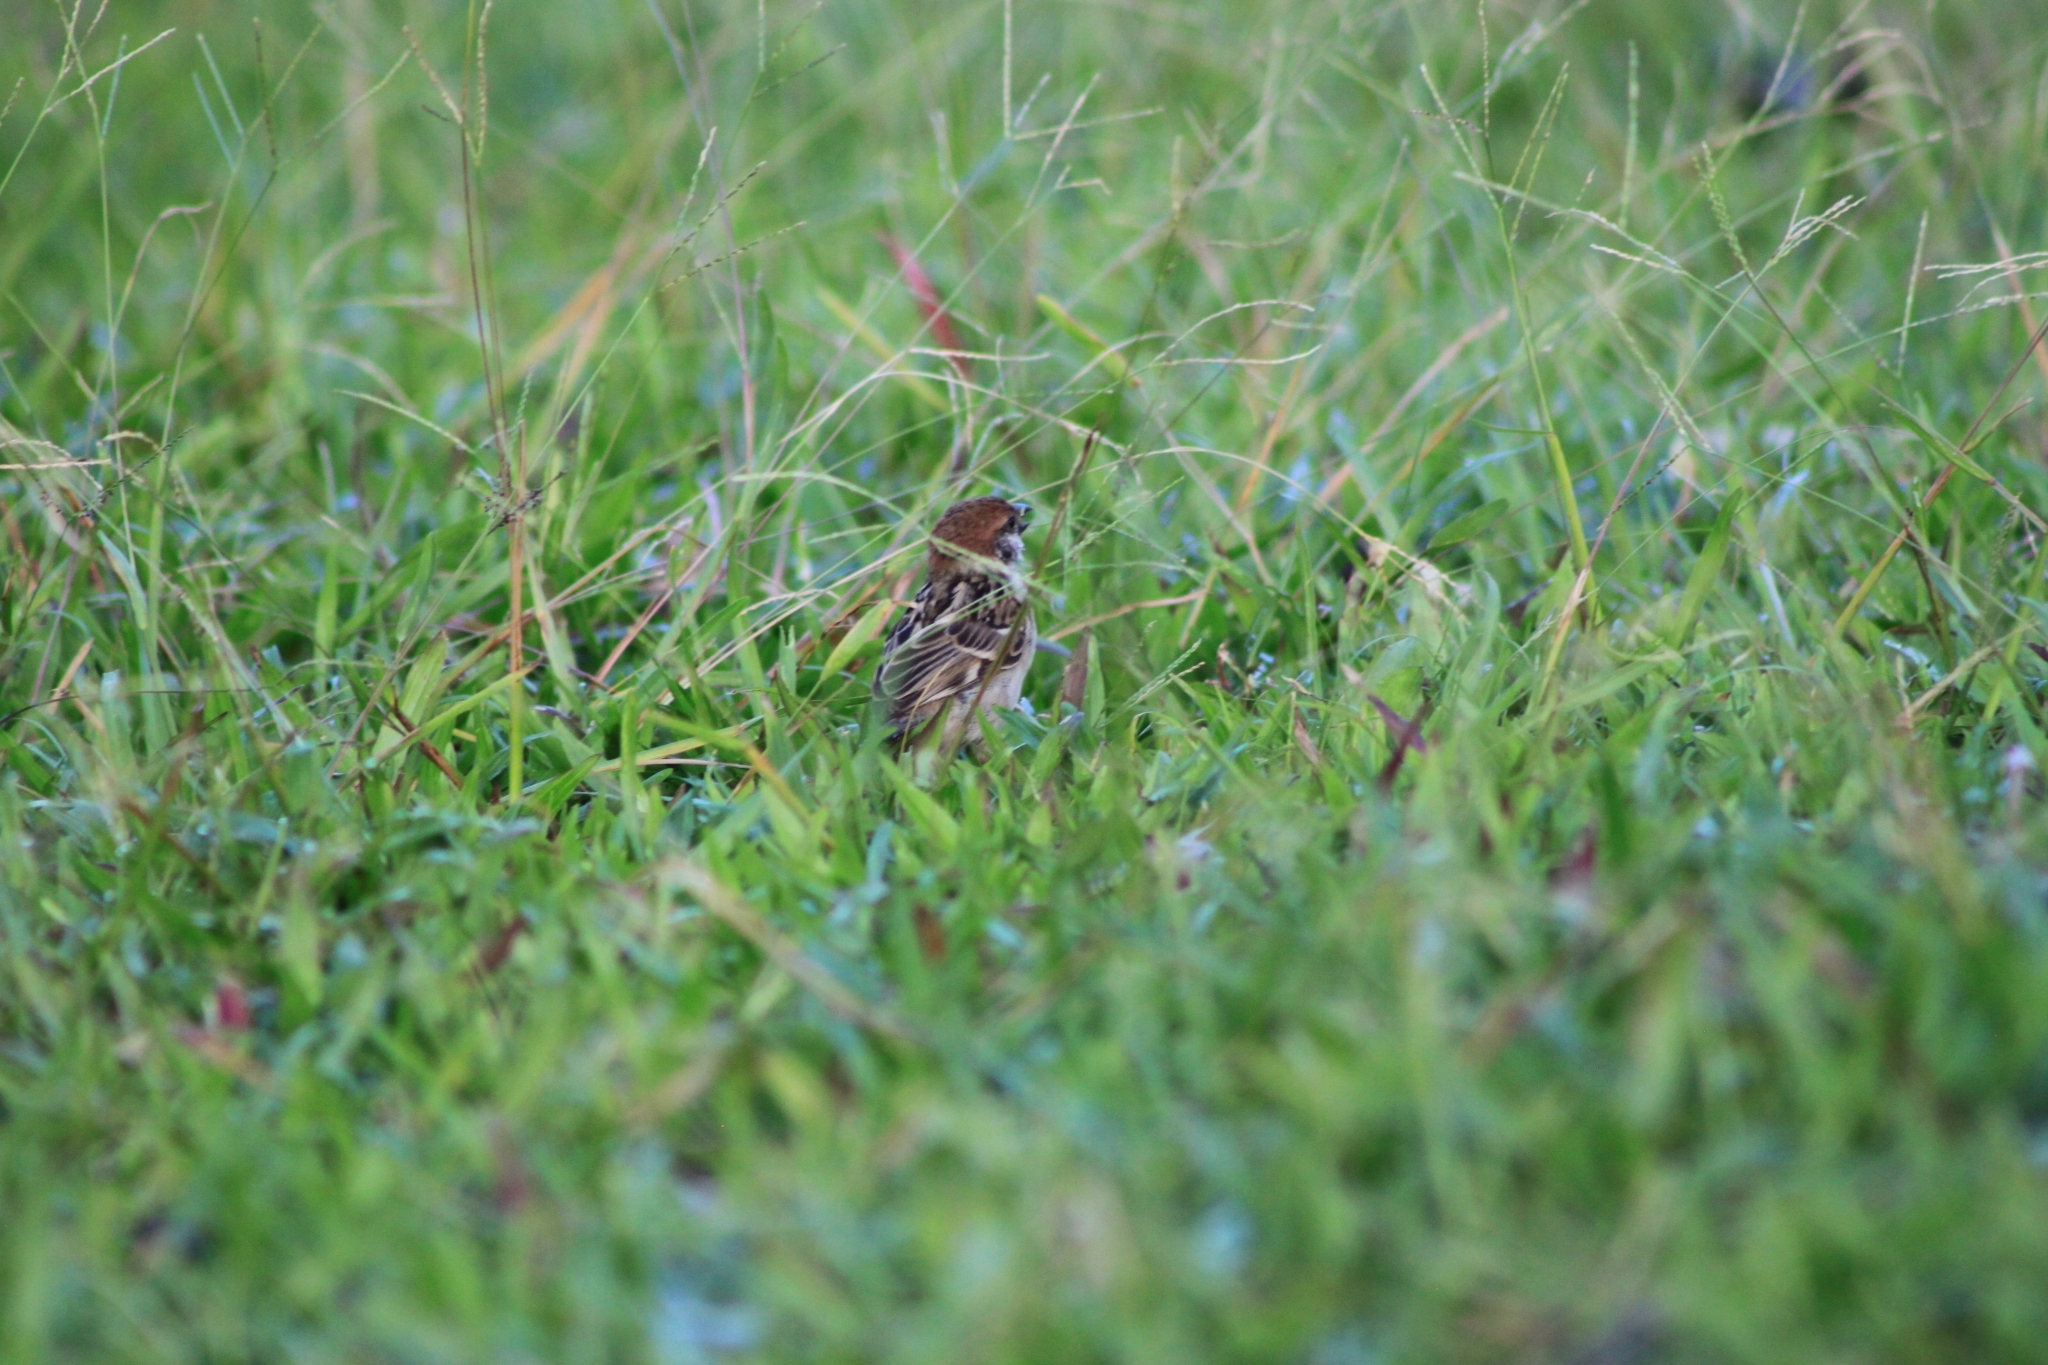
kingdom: Animalia
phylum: Chordata
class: Aves
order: Passeriformes
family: Passeridae
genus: Passer
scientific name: Passer montanus
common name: Eurasian tree sparrow
